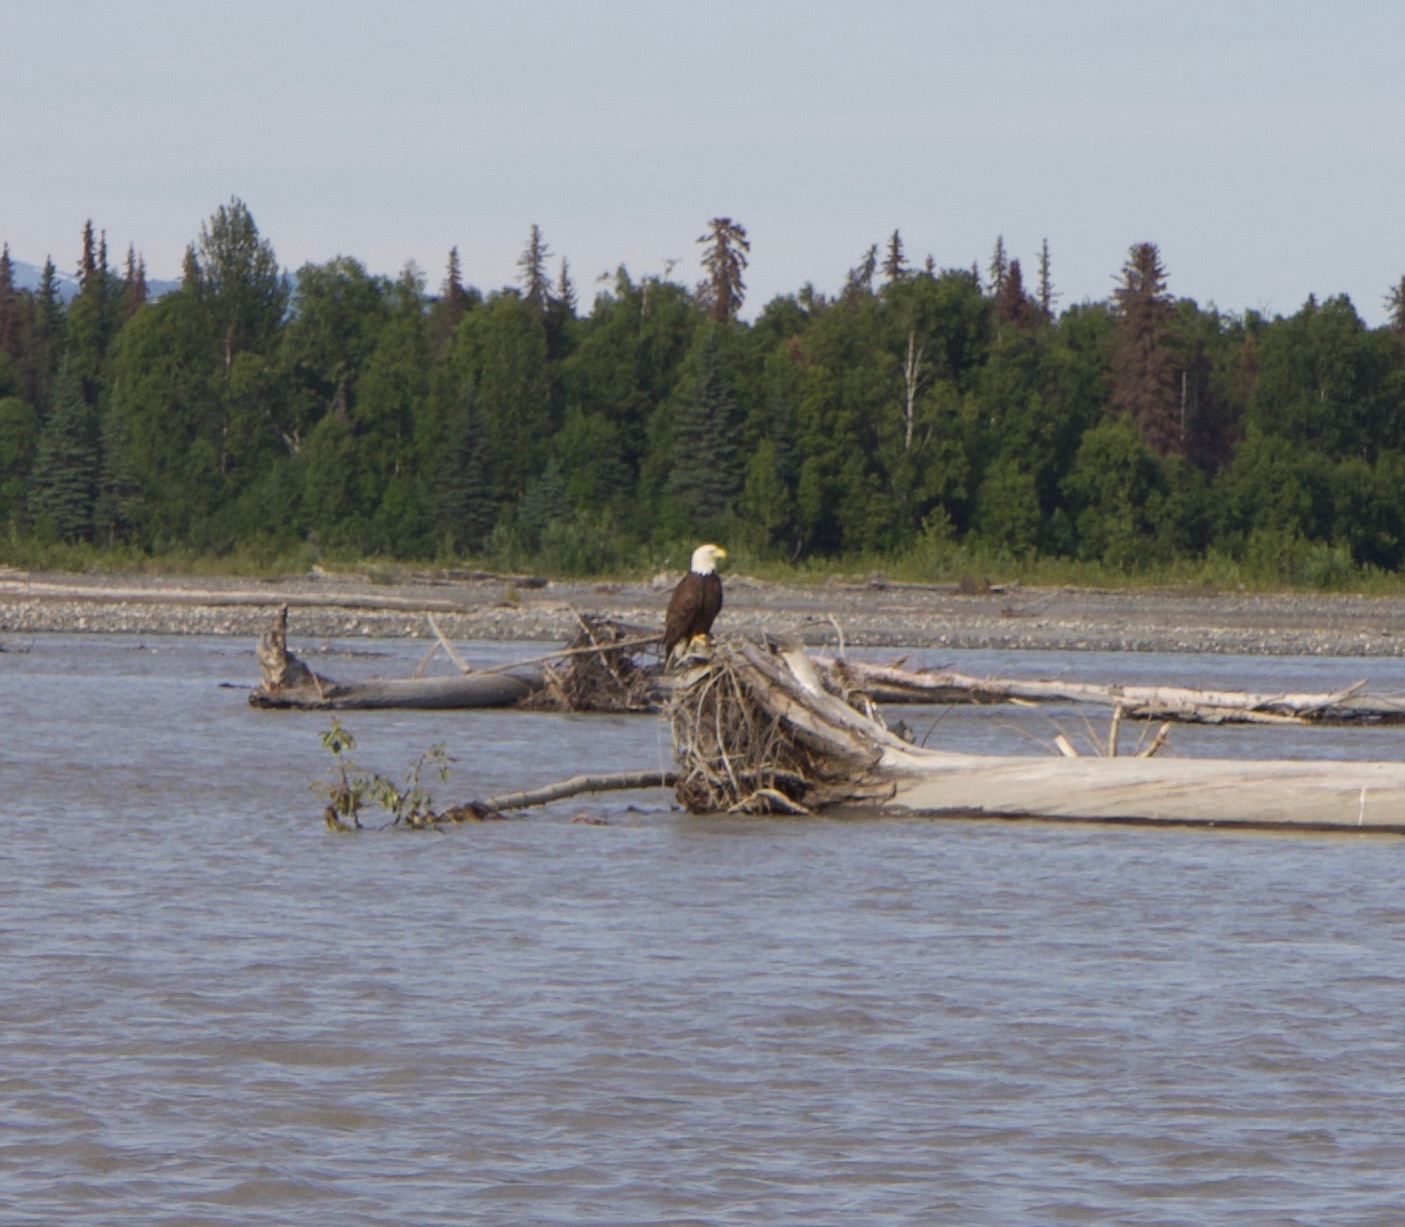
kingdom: Animalia
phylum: Chordata
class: Aves
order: Accipitriformes
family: Accipitridae
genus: Haliaeetus
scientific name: Haliaeetus leucocephalus
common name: Bald eagle
